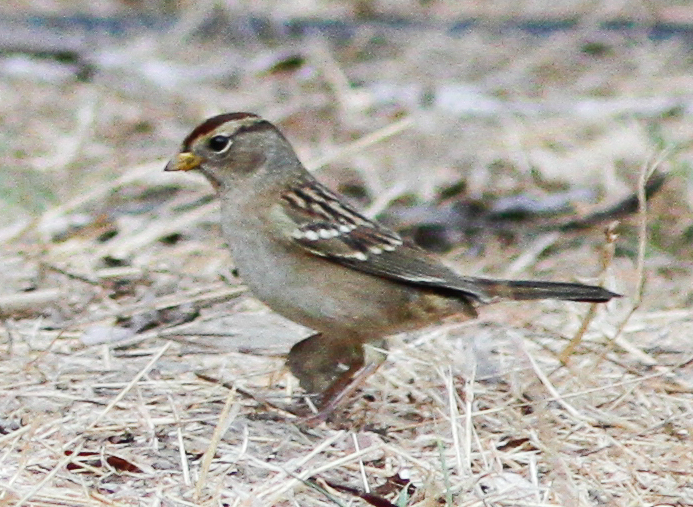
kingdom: Animalia
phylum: Chordata
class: Aves
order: Passeriformes
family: Passerellidae
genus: Zonotrichia
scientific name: Zonotrichia leucophrys
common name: White-crowned sparrow
